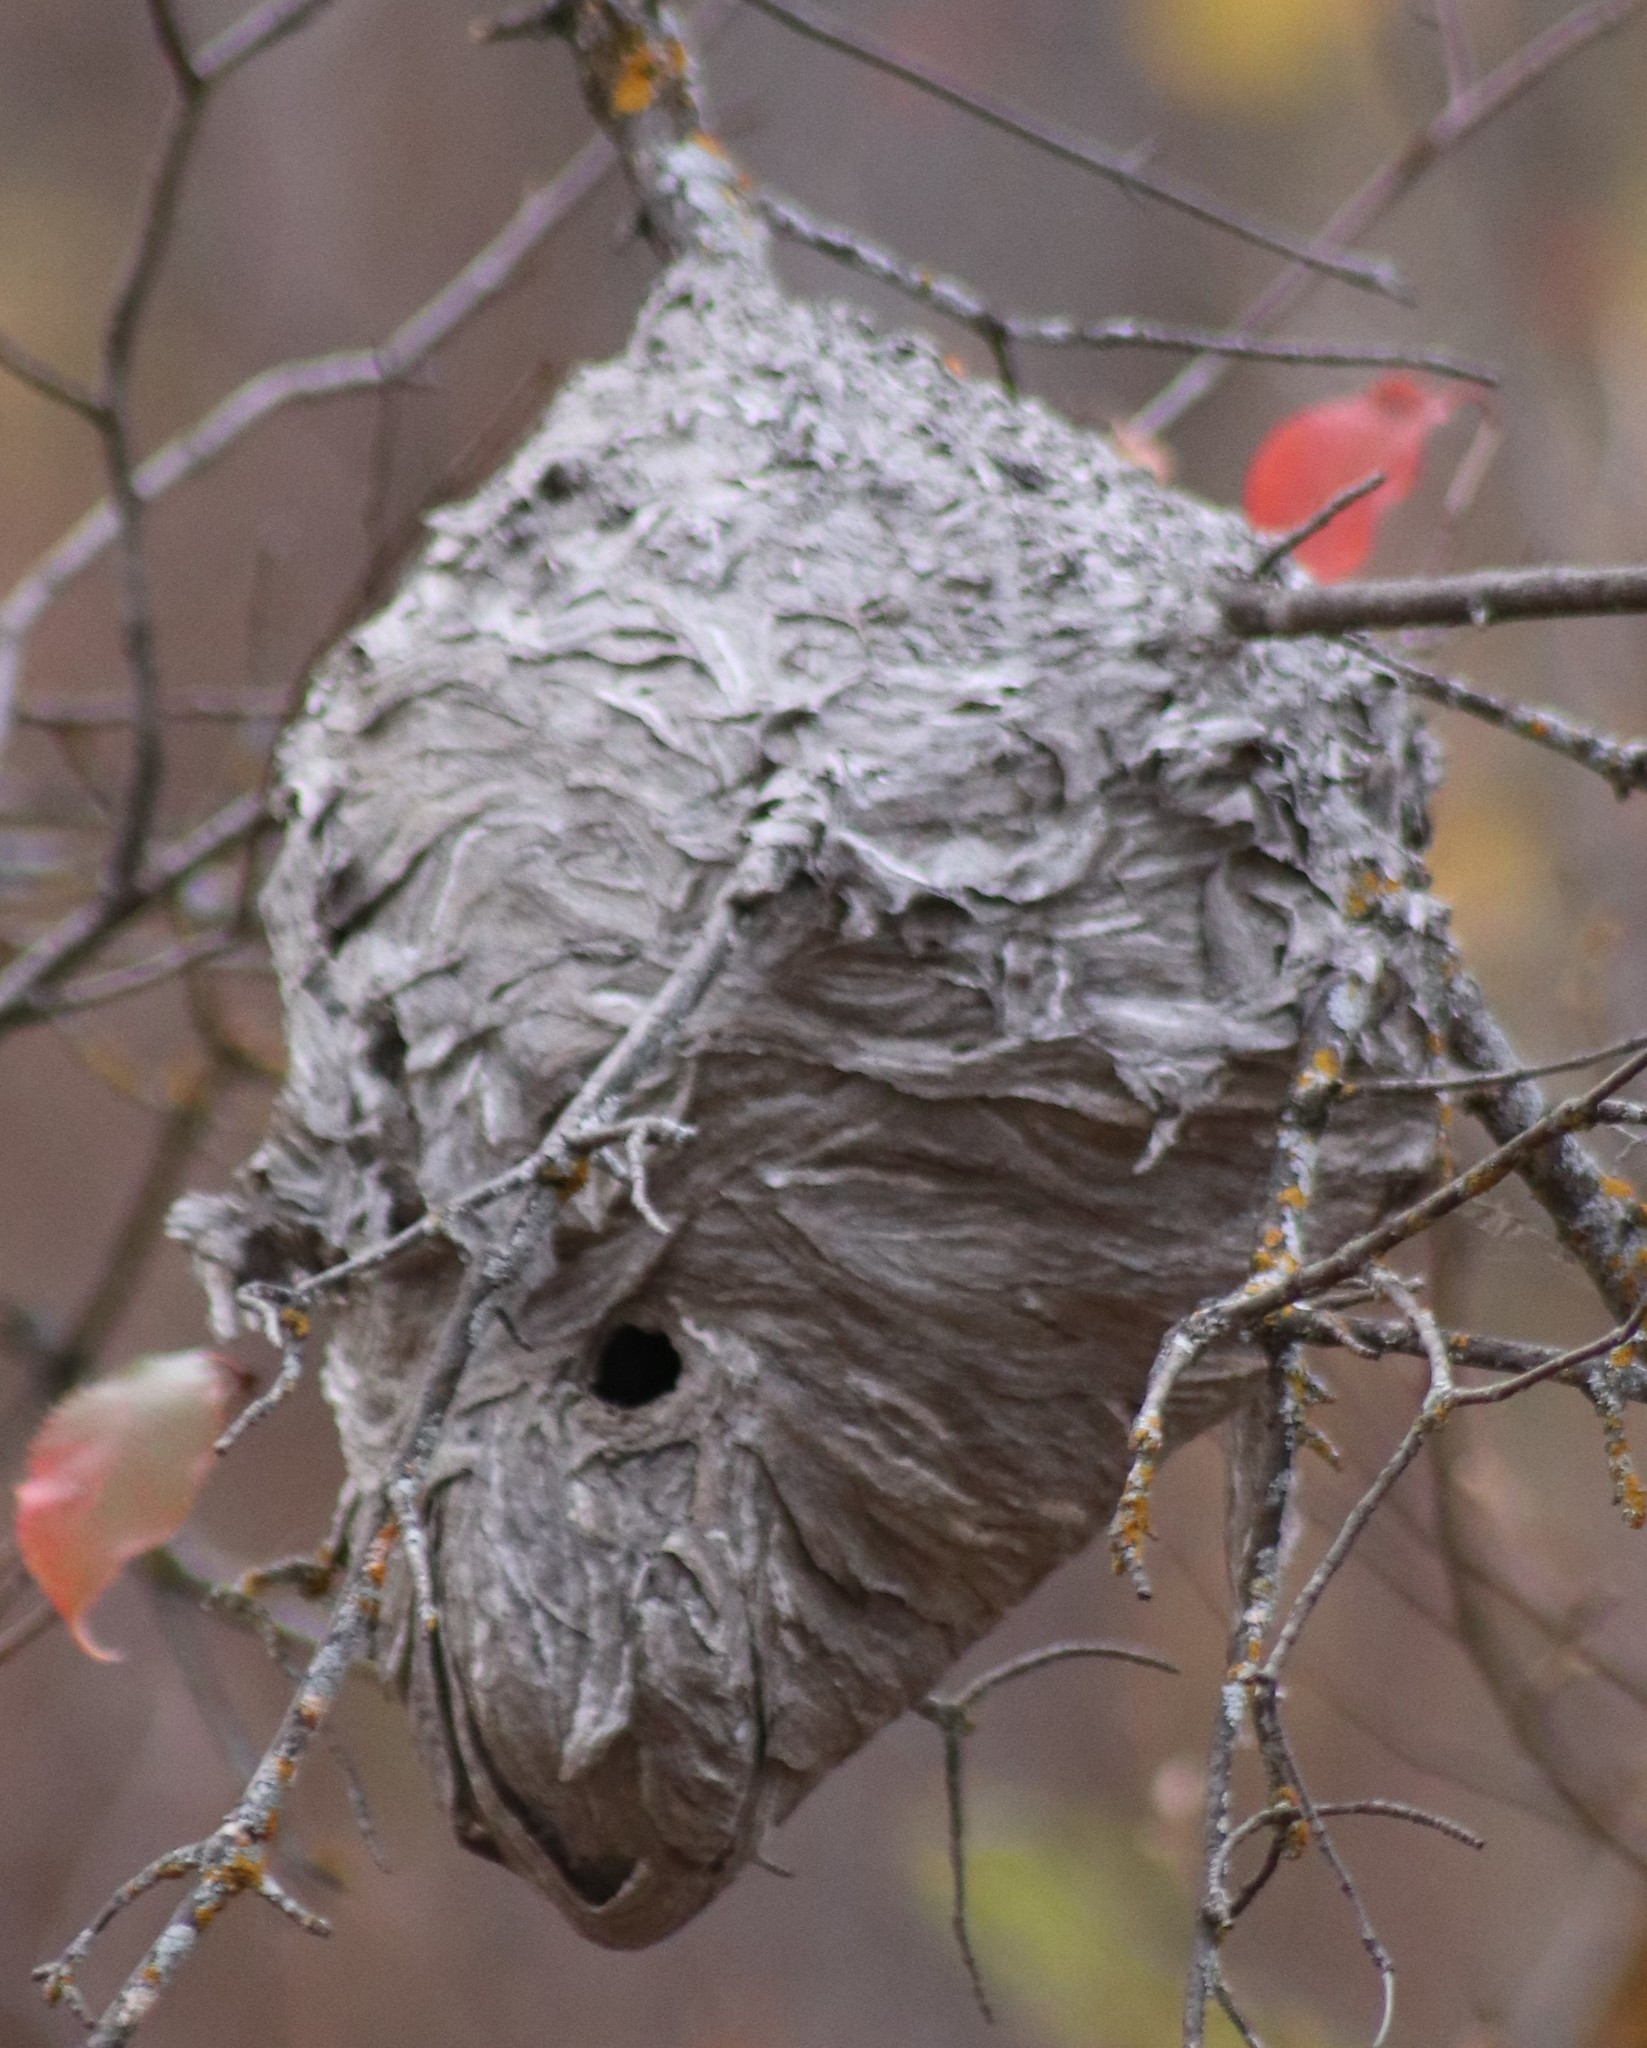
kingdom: Animalia
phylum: Arthropoda
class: Insecta
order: Hymenoptera
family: Vespidae
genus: Dolichovespula
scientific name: Dolichovespula
